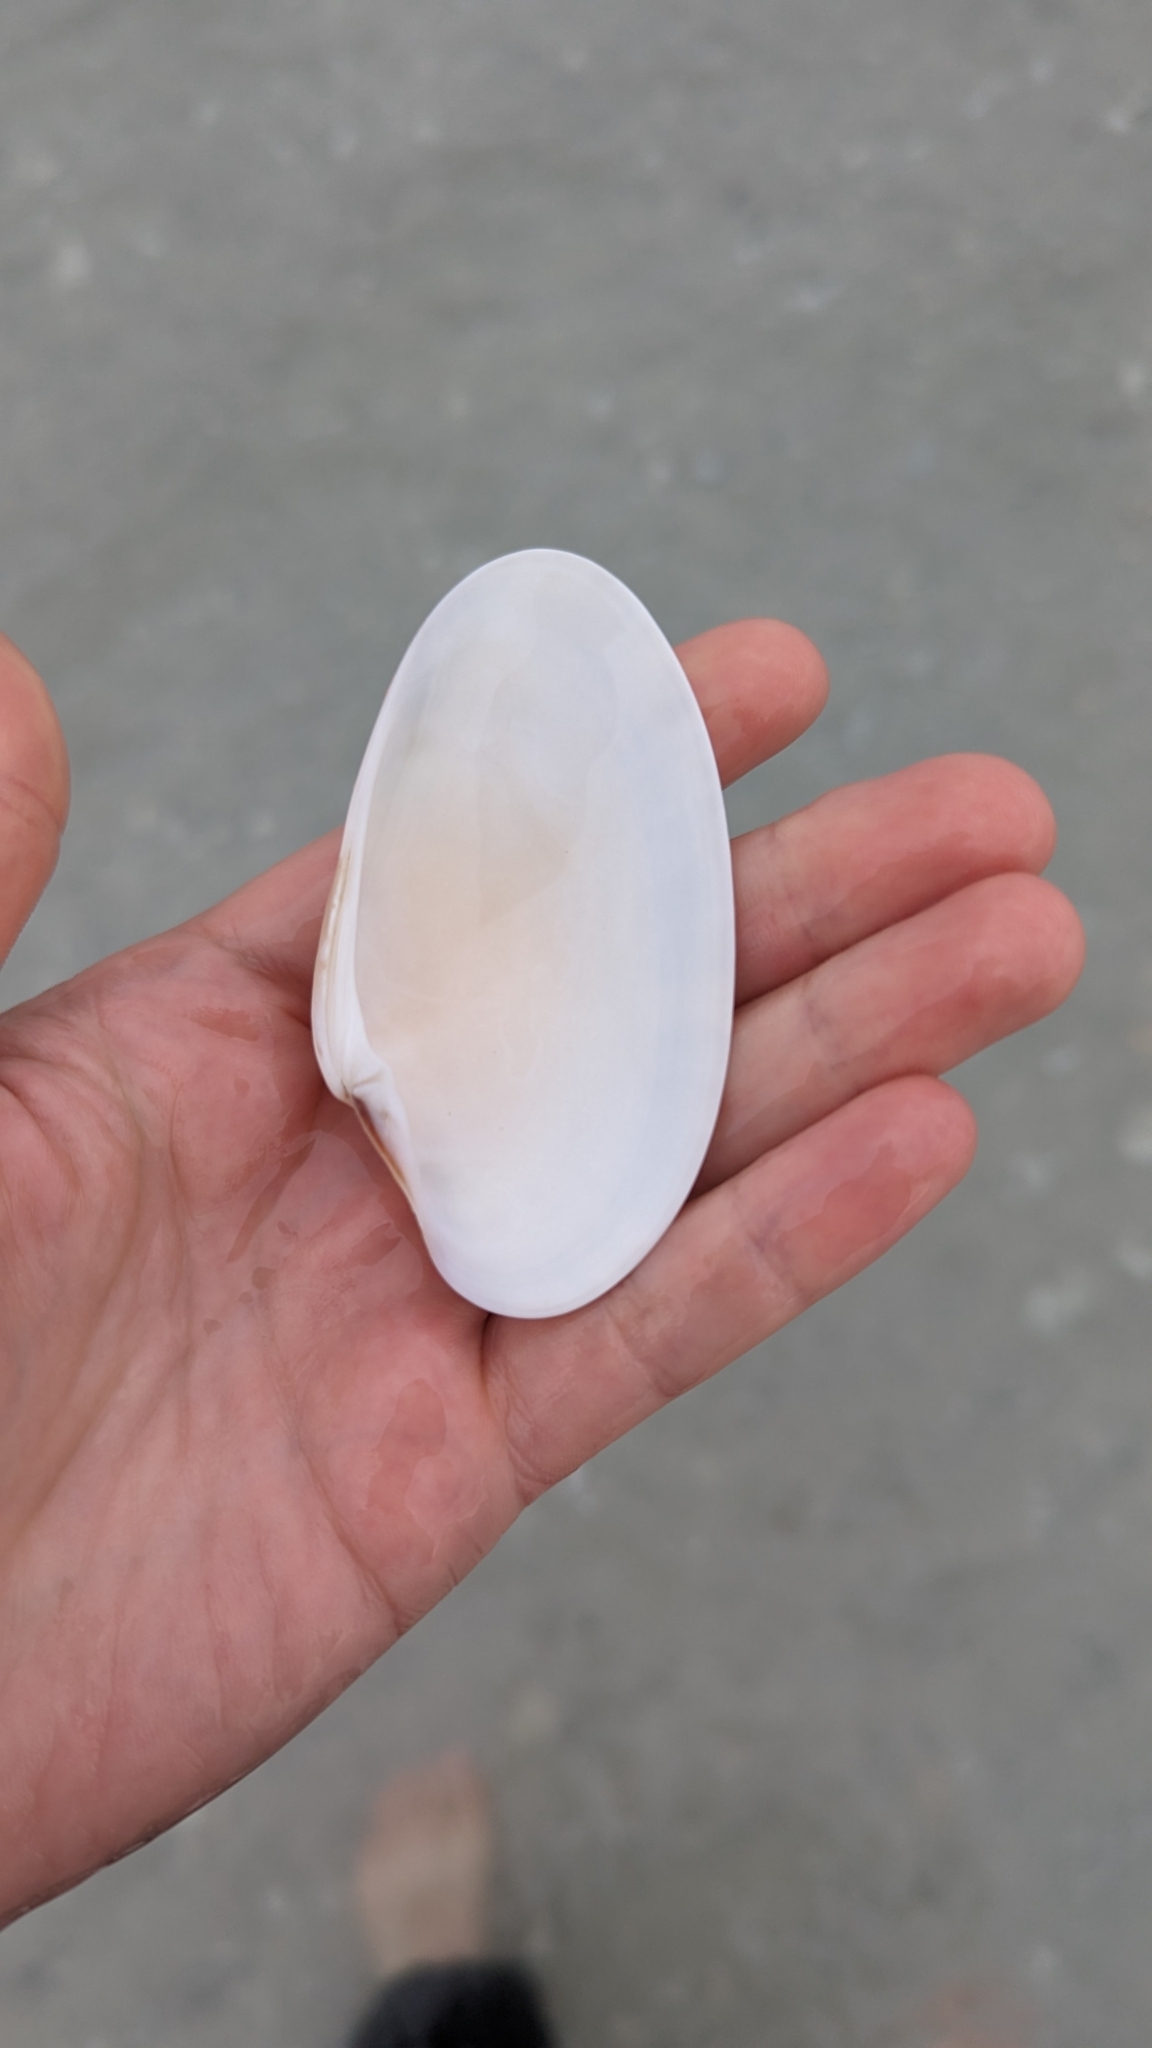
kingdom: Animalia
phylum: Mollusca
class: Bivalvia
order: Venerida
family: Veneridae
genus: Macrocallista
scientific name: Macrocallista nimbosa
